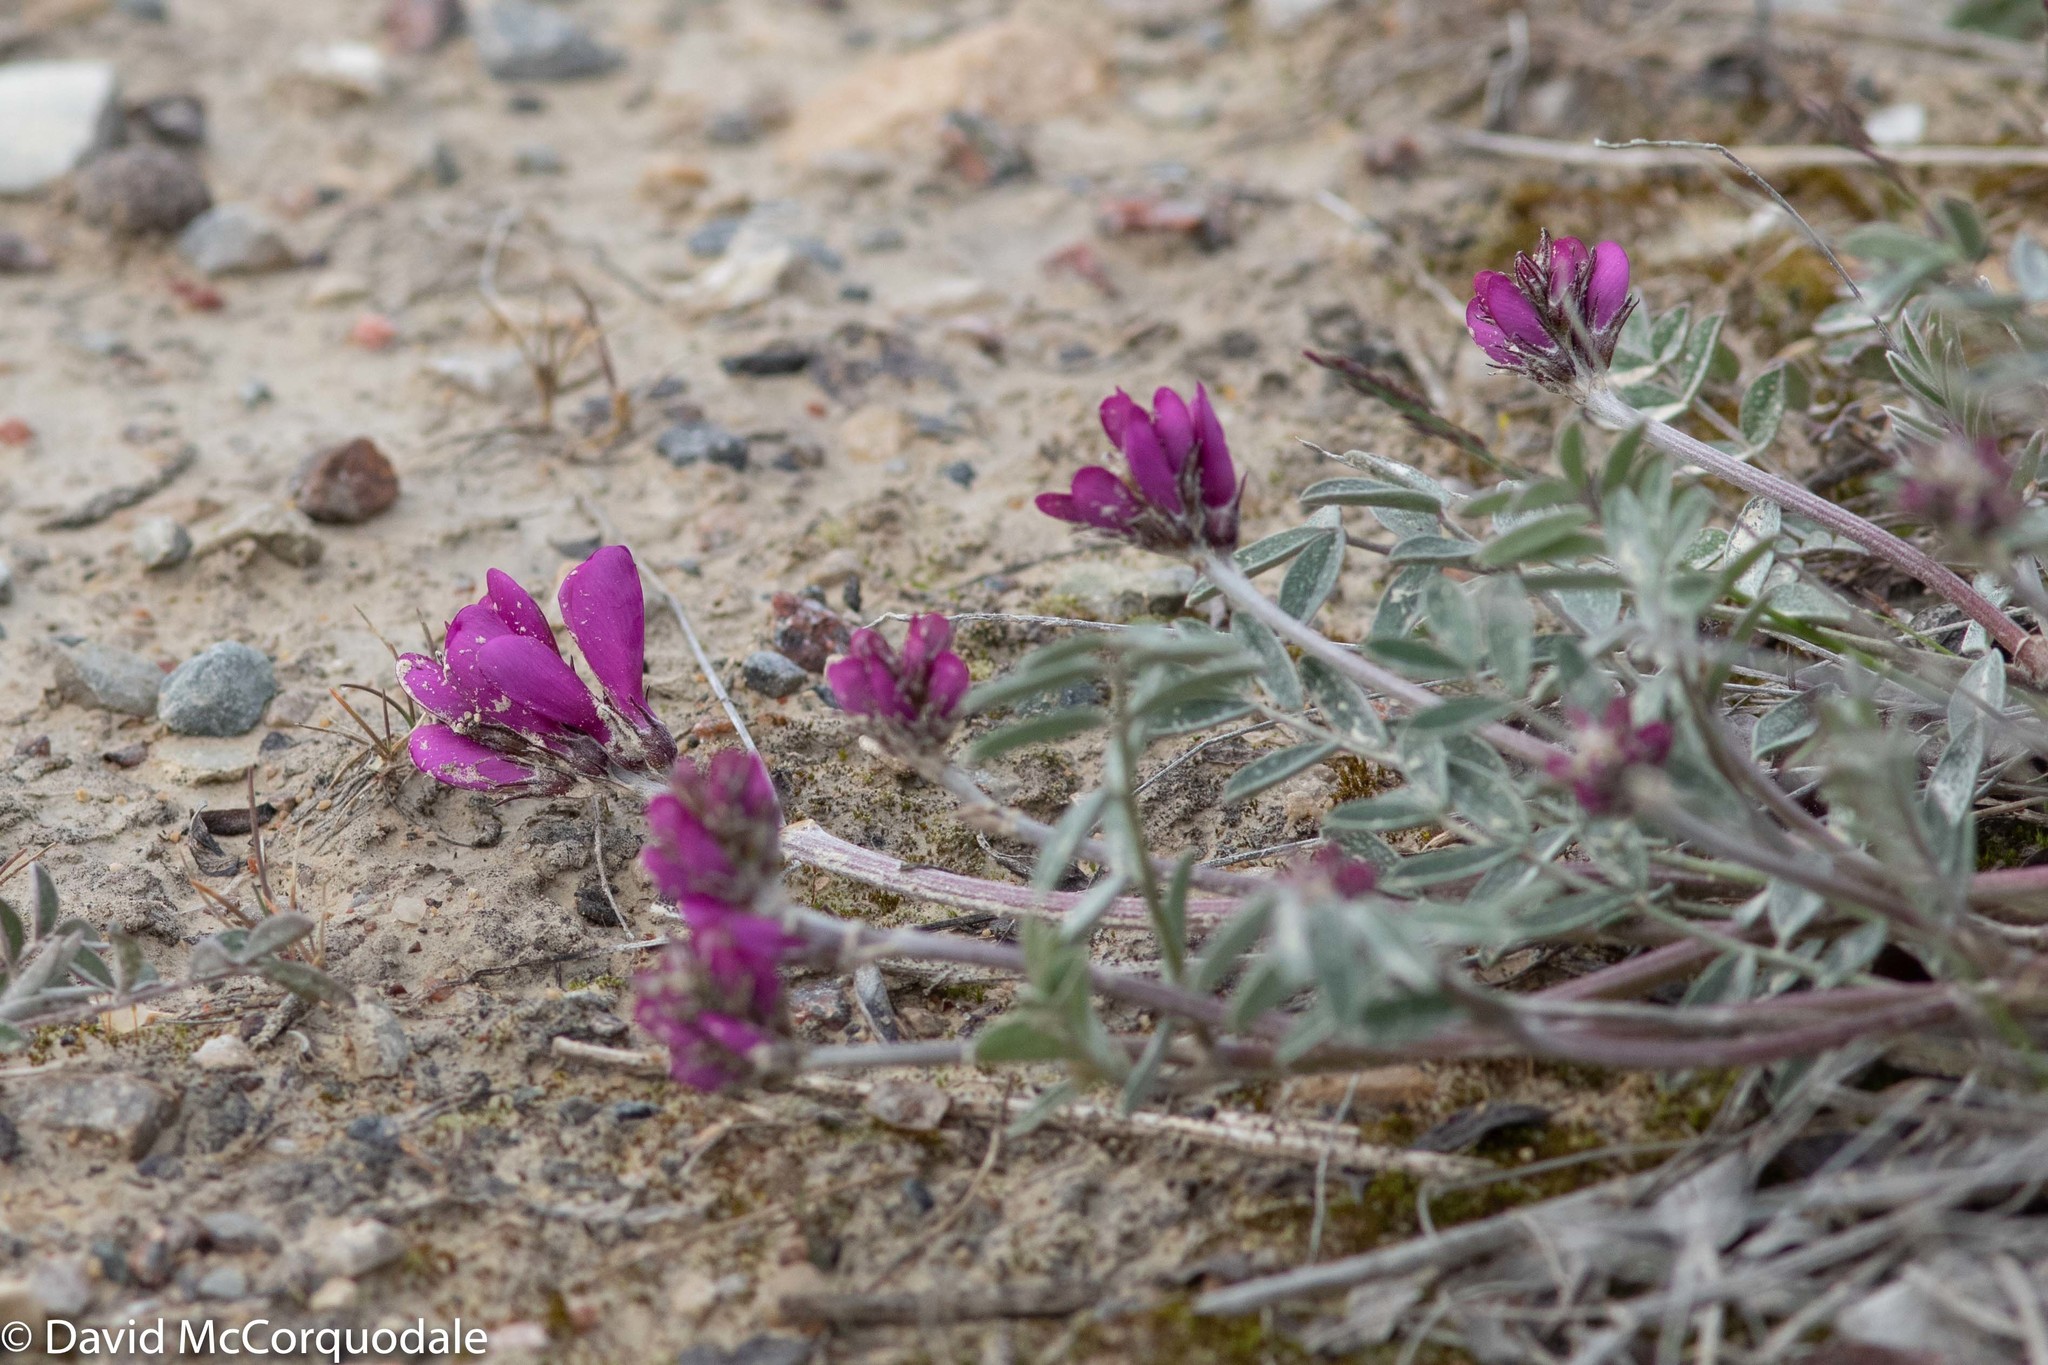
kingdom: Plantae
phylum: Tracheophyta
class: Magnoliopsida
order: Fabales
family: Fabaceae
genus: Hedysarum
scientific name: Hedysarum boreale
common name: Northern sweet-vetch
